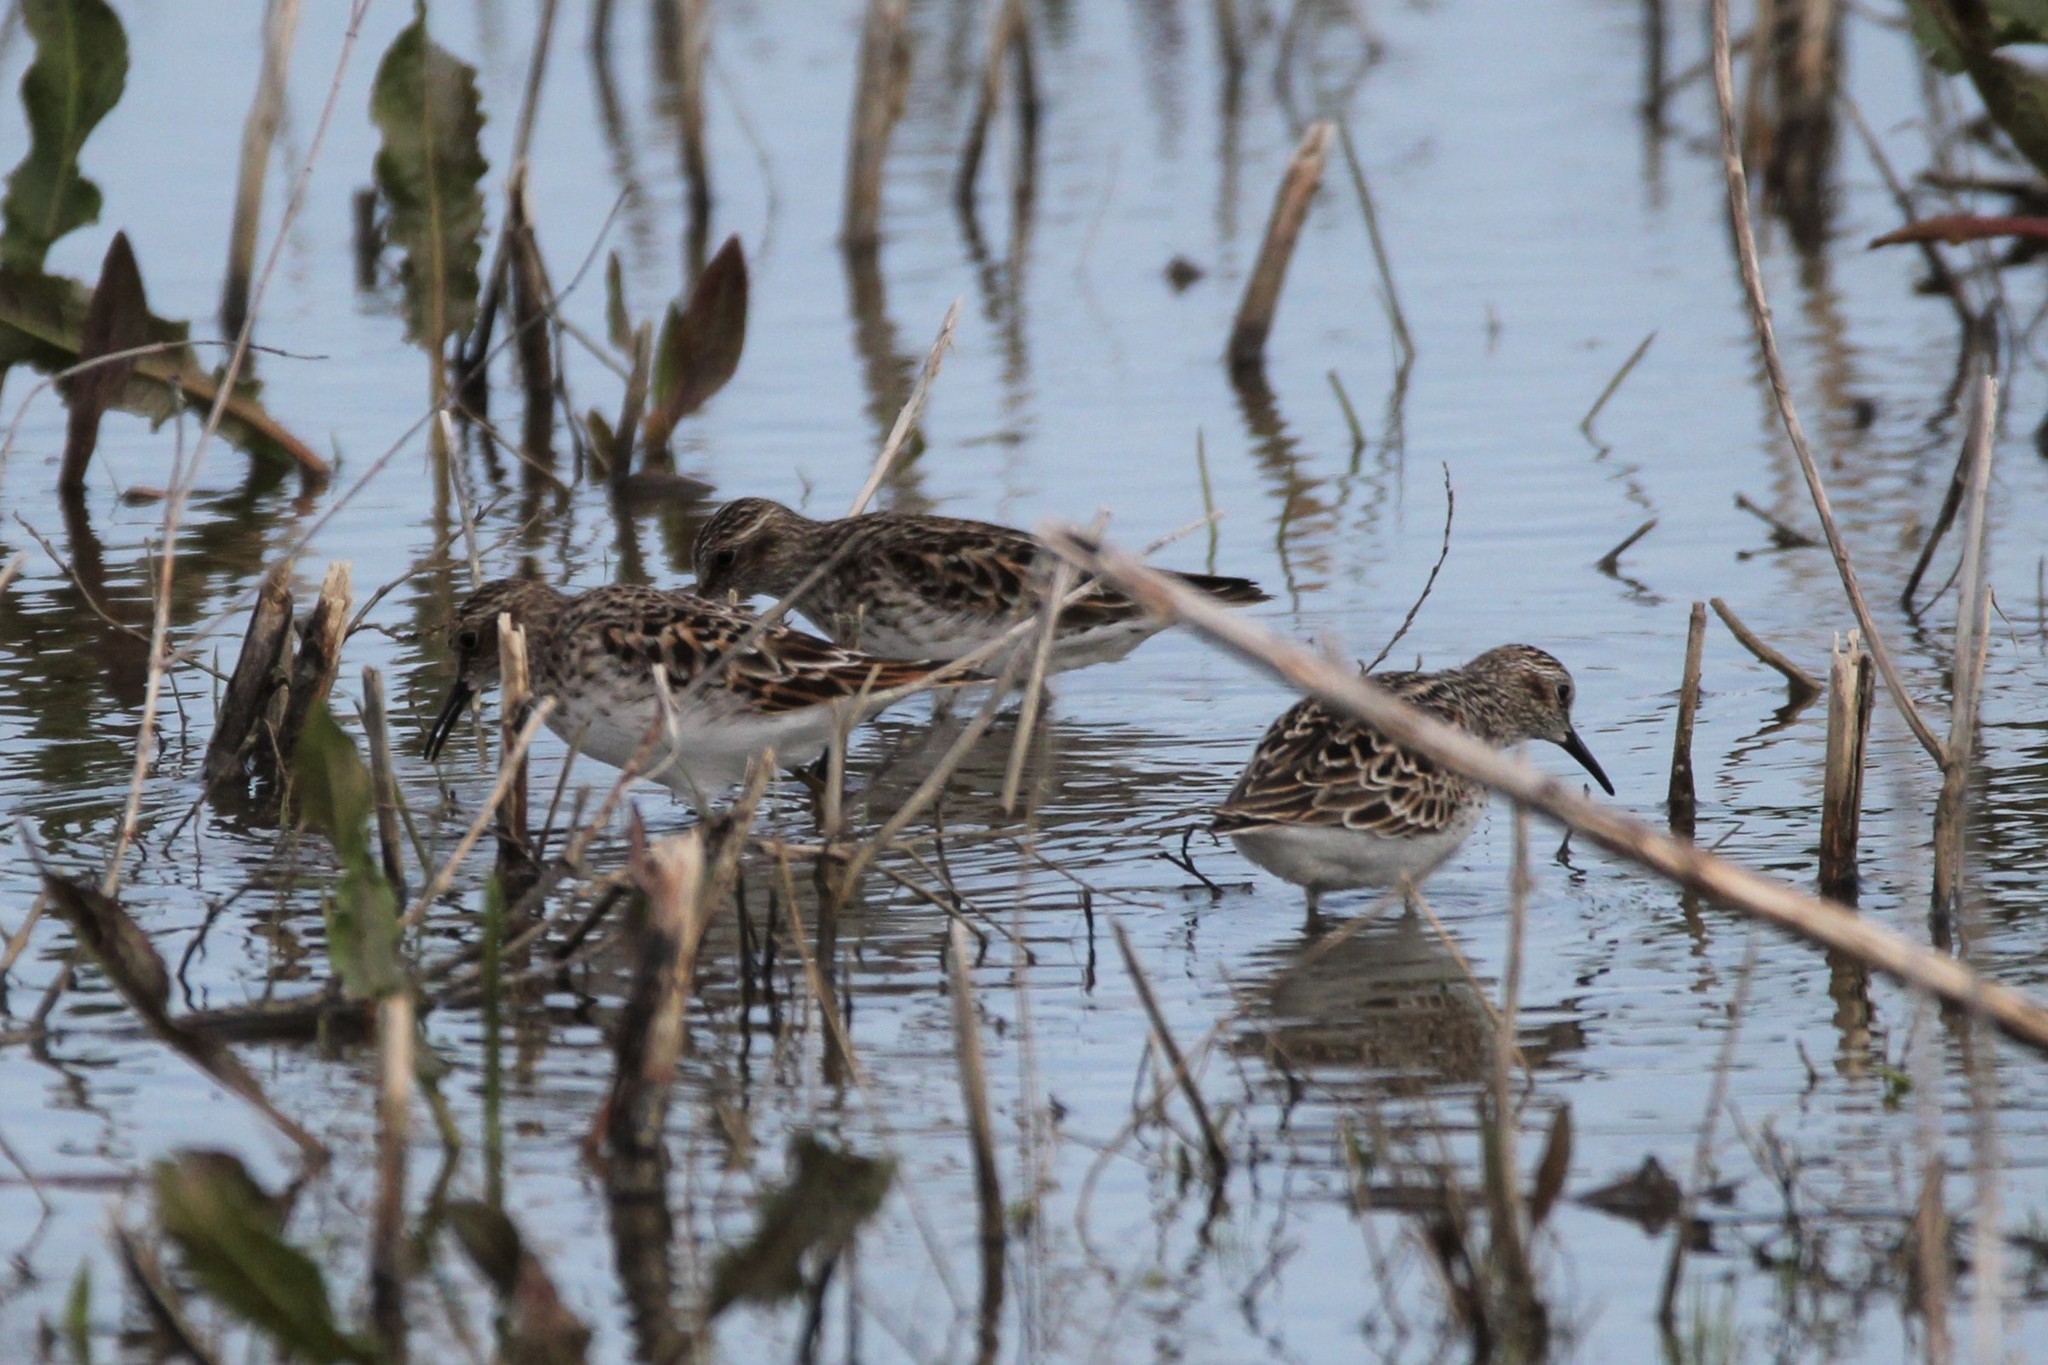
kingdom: Animalia
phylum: Chordata
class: Aves
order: Charadriiformes
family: Scolopacidae
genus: Calidris
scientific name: Calidris minutilla
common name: Least sandpiper
